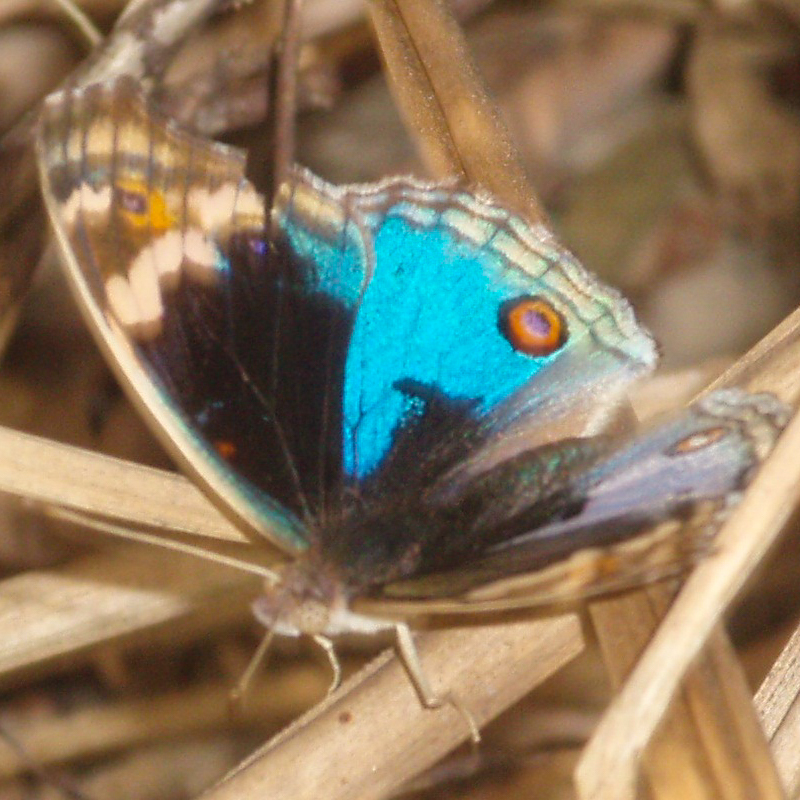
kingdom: Animalia
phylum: Arthropoda
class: Insecta
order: Lepidoptera
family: Nymphalidae
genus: Junonia
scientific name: Junonia orithya
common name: Blue pansy
